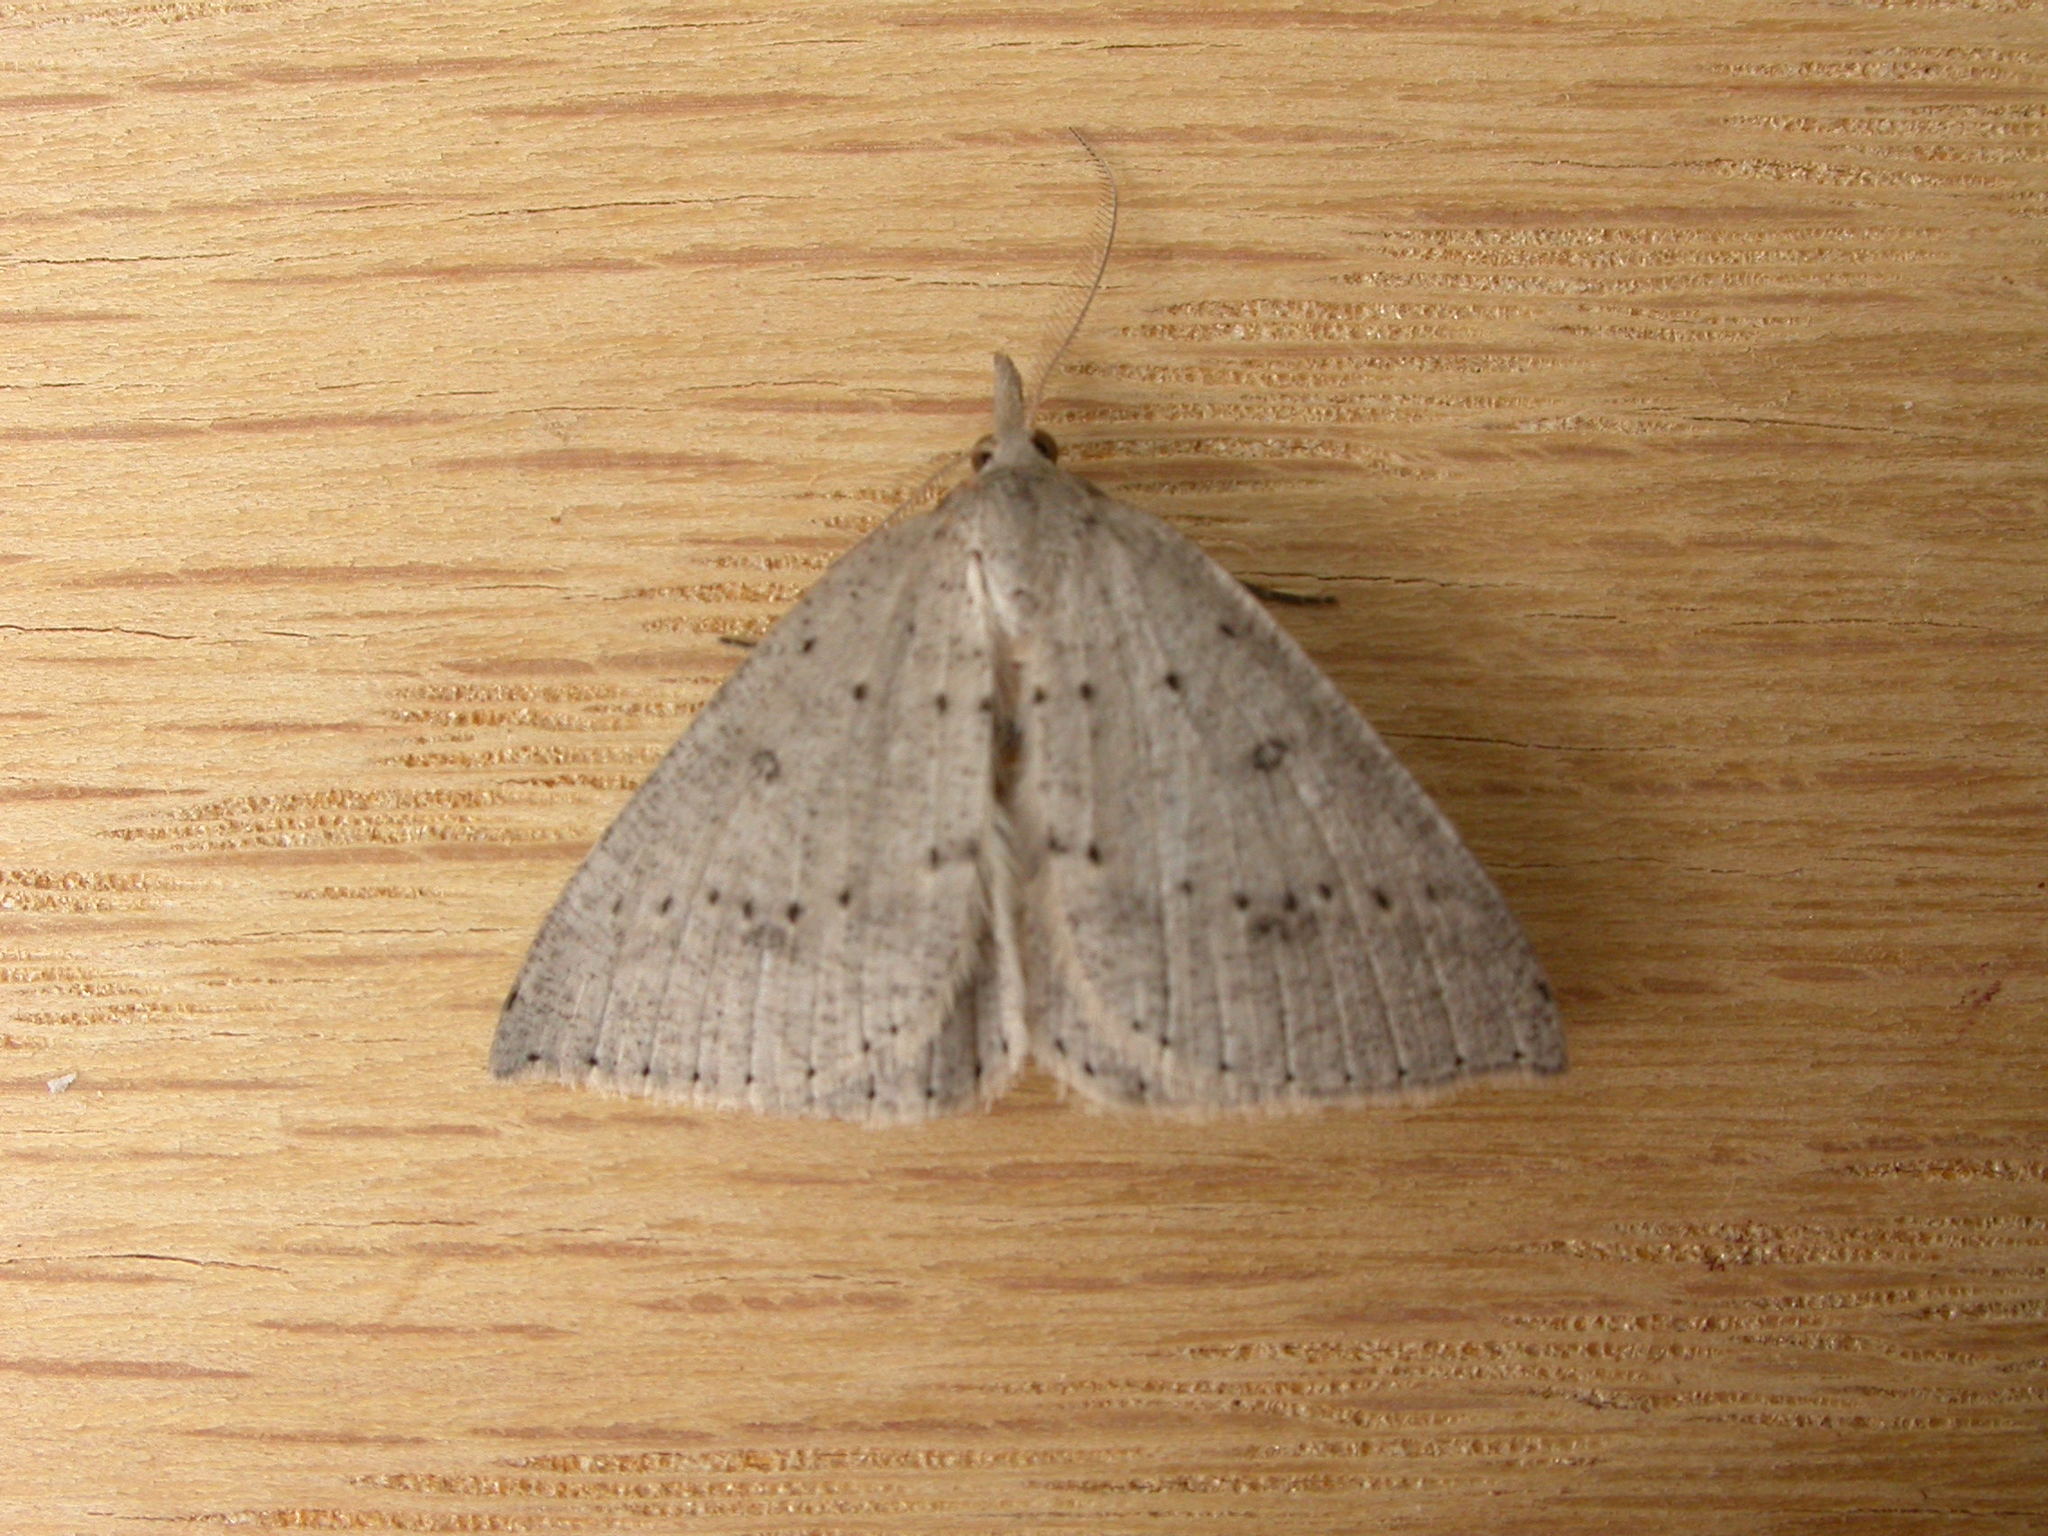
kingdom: Animalia
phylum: Arthropoda
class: Insecta
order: Lepidoptera
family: Geometridae
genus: Nearcha
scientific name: Nearcha nullata
